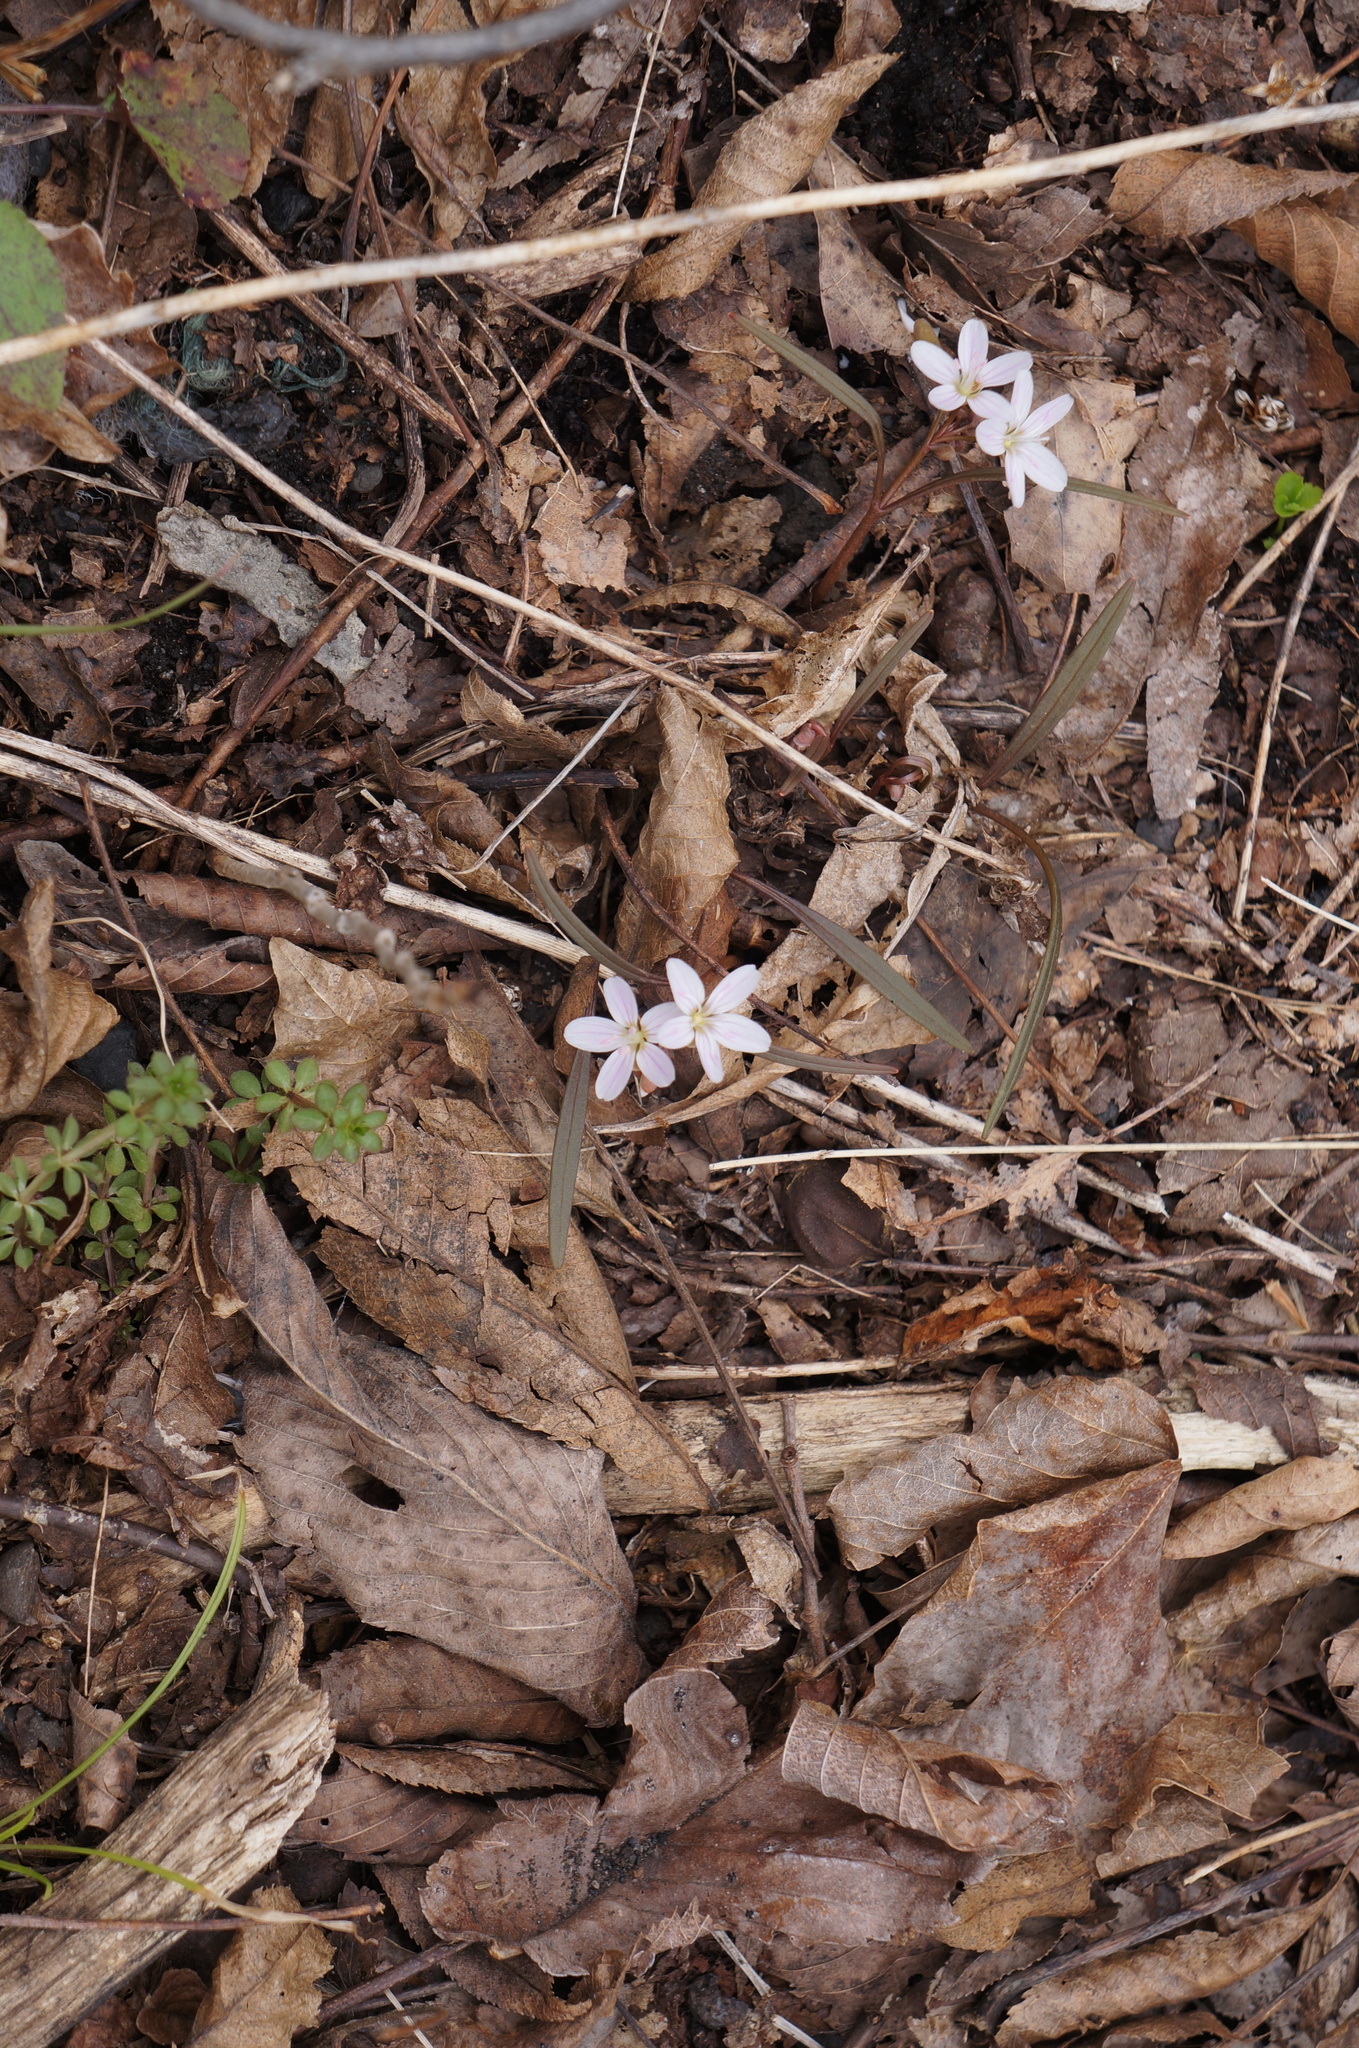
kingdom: Plantae
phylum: Tracheophyta
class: Magnoliopsida
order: Caryophyllales
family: Montiaceae
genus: Claytonia
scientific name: Claytonia virginica
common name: Virginia springbeauty
